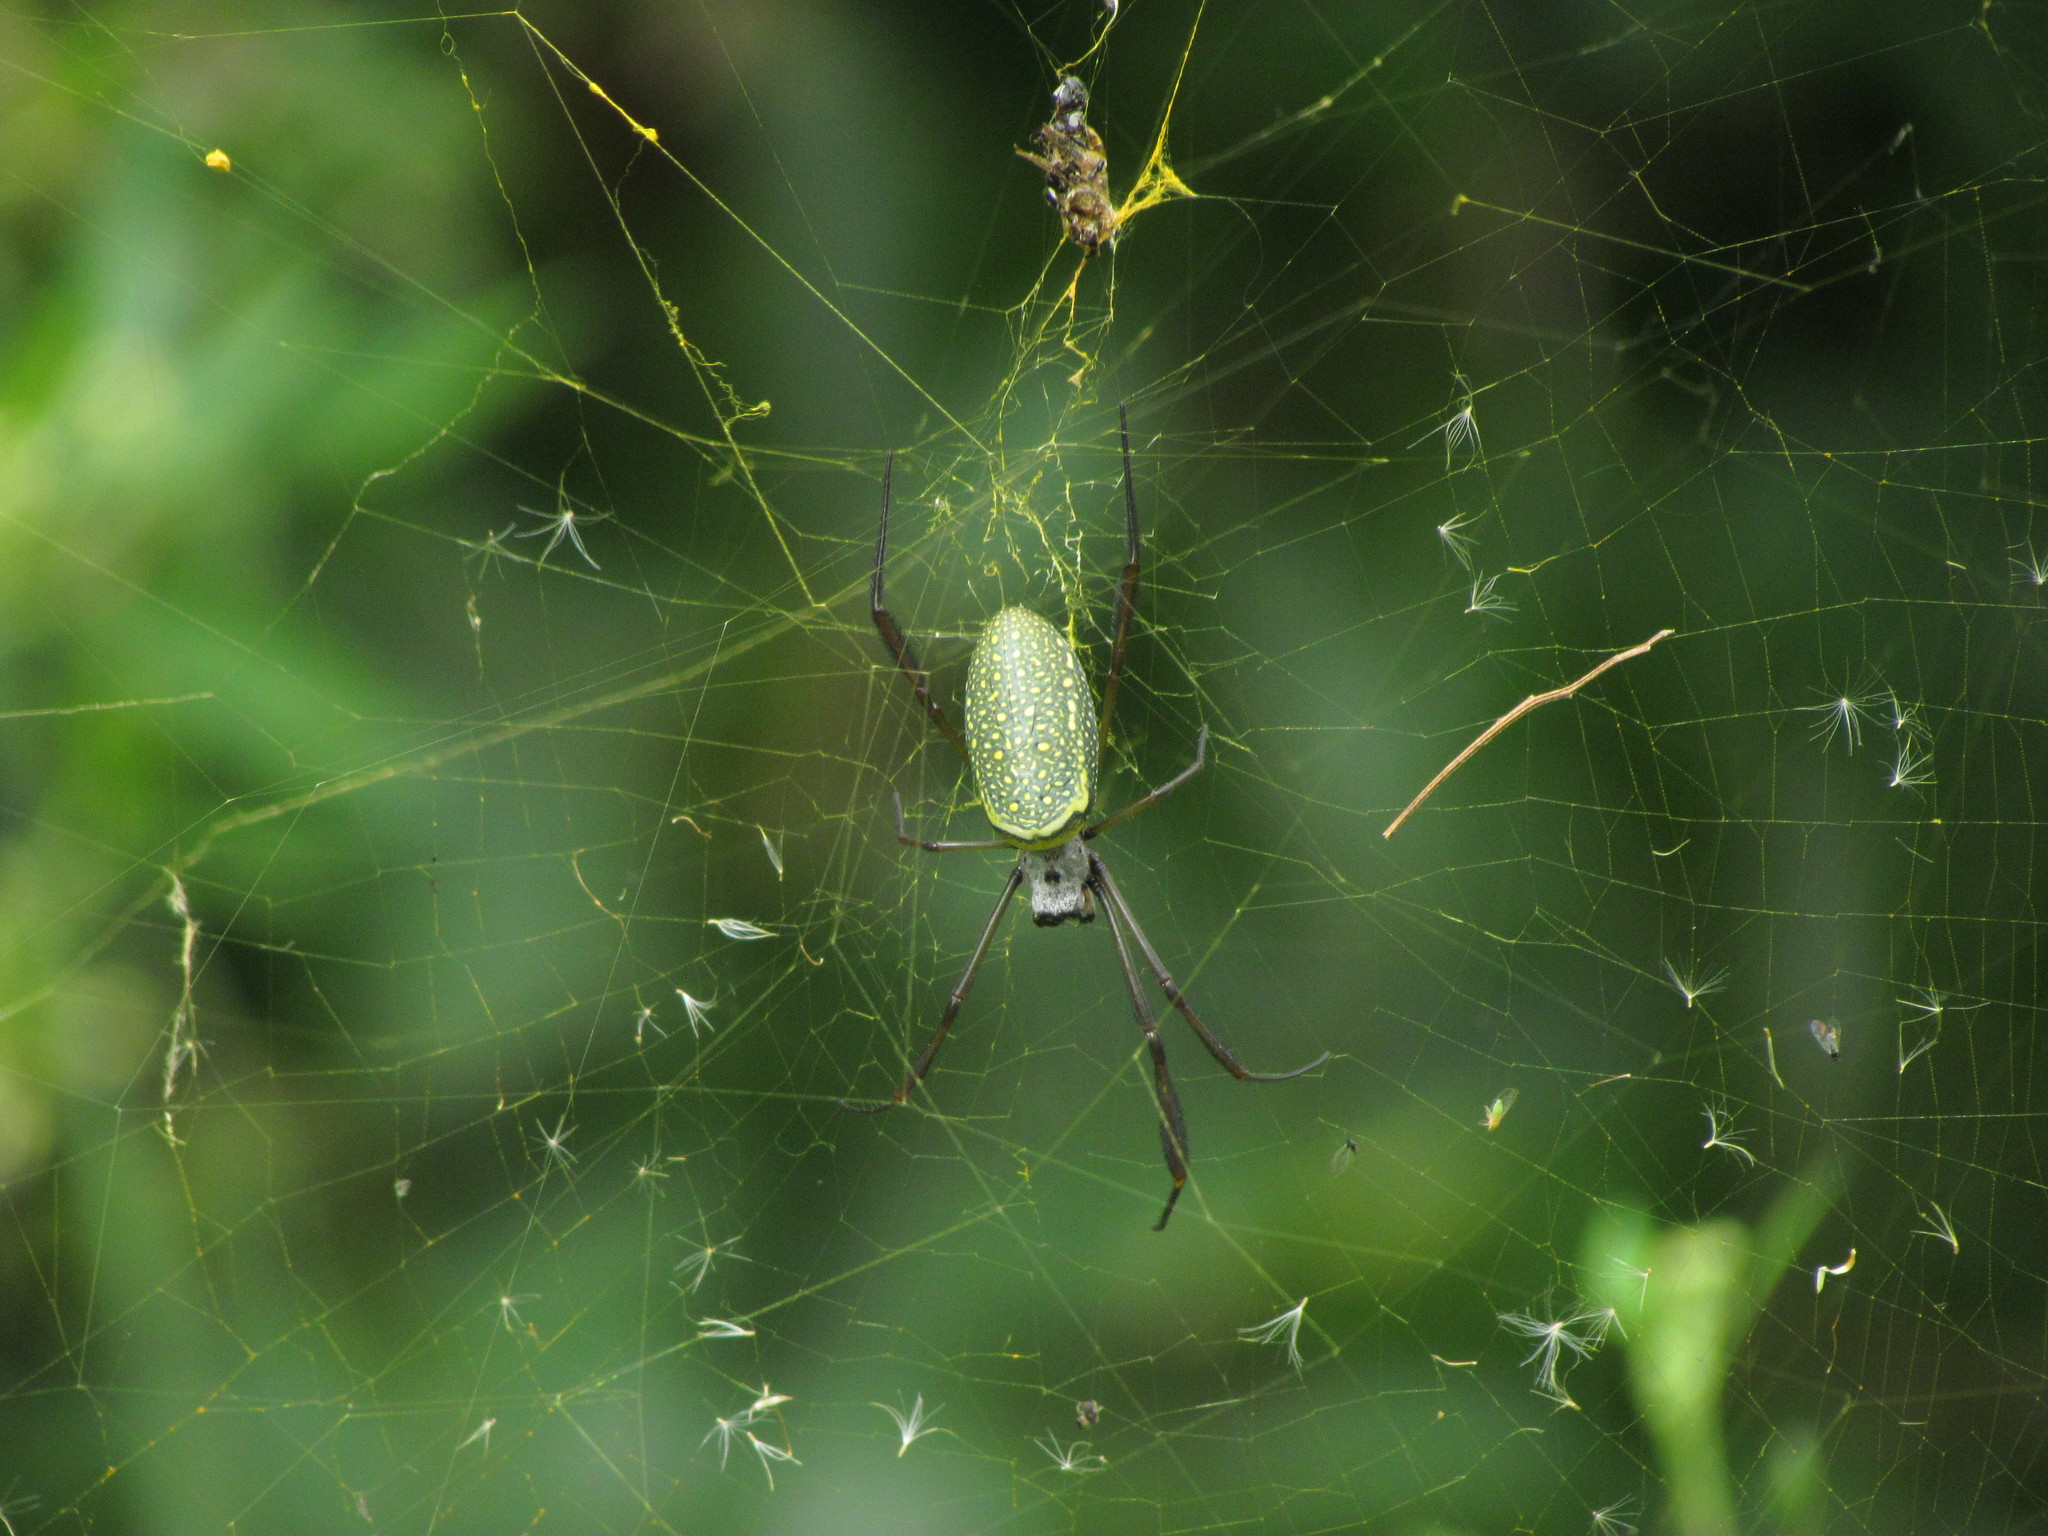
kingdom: Animalia
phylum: Arthropoda
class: Arachnida
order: Araneae
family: Araneidae
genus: Trichonephila
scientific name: Trichonephila clavipes
